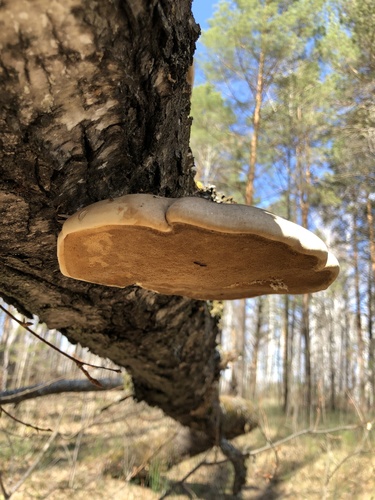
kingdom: Fungi
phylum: Basidiomycota
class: Agaricomycetes
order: Polyporales
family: Fomitopsidaceae
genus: Fomitopsis
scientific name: Fomitopsis betulina
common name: Birch polypore
